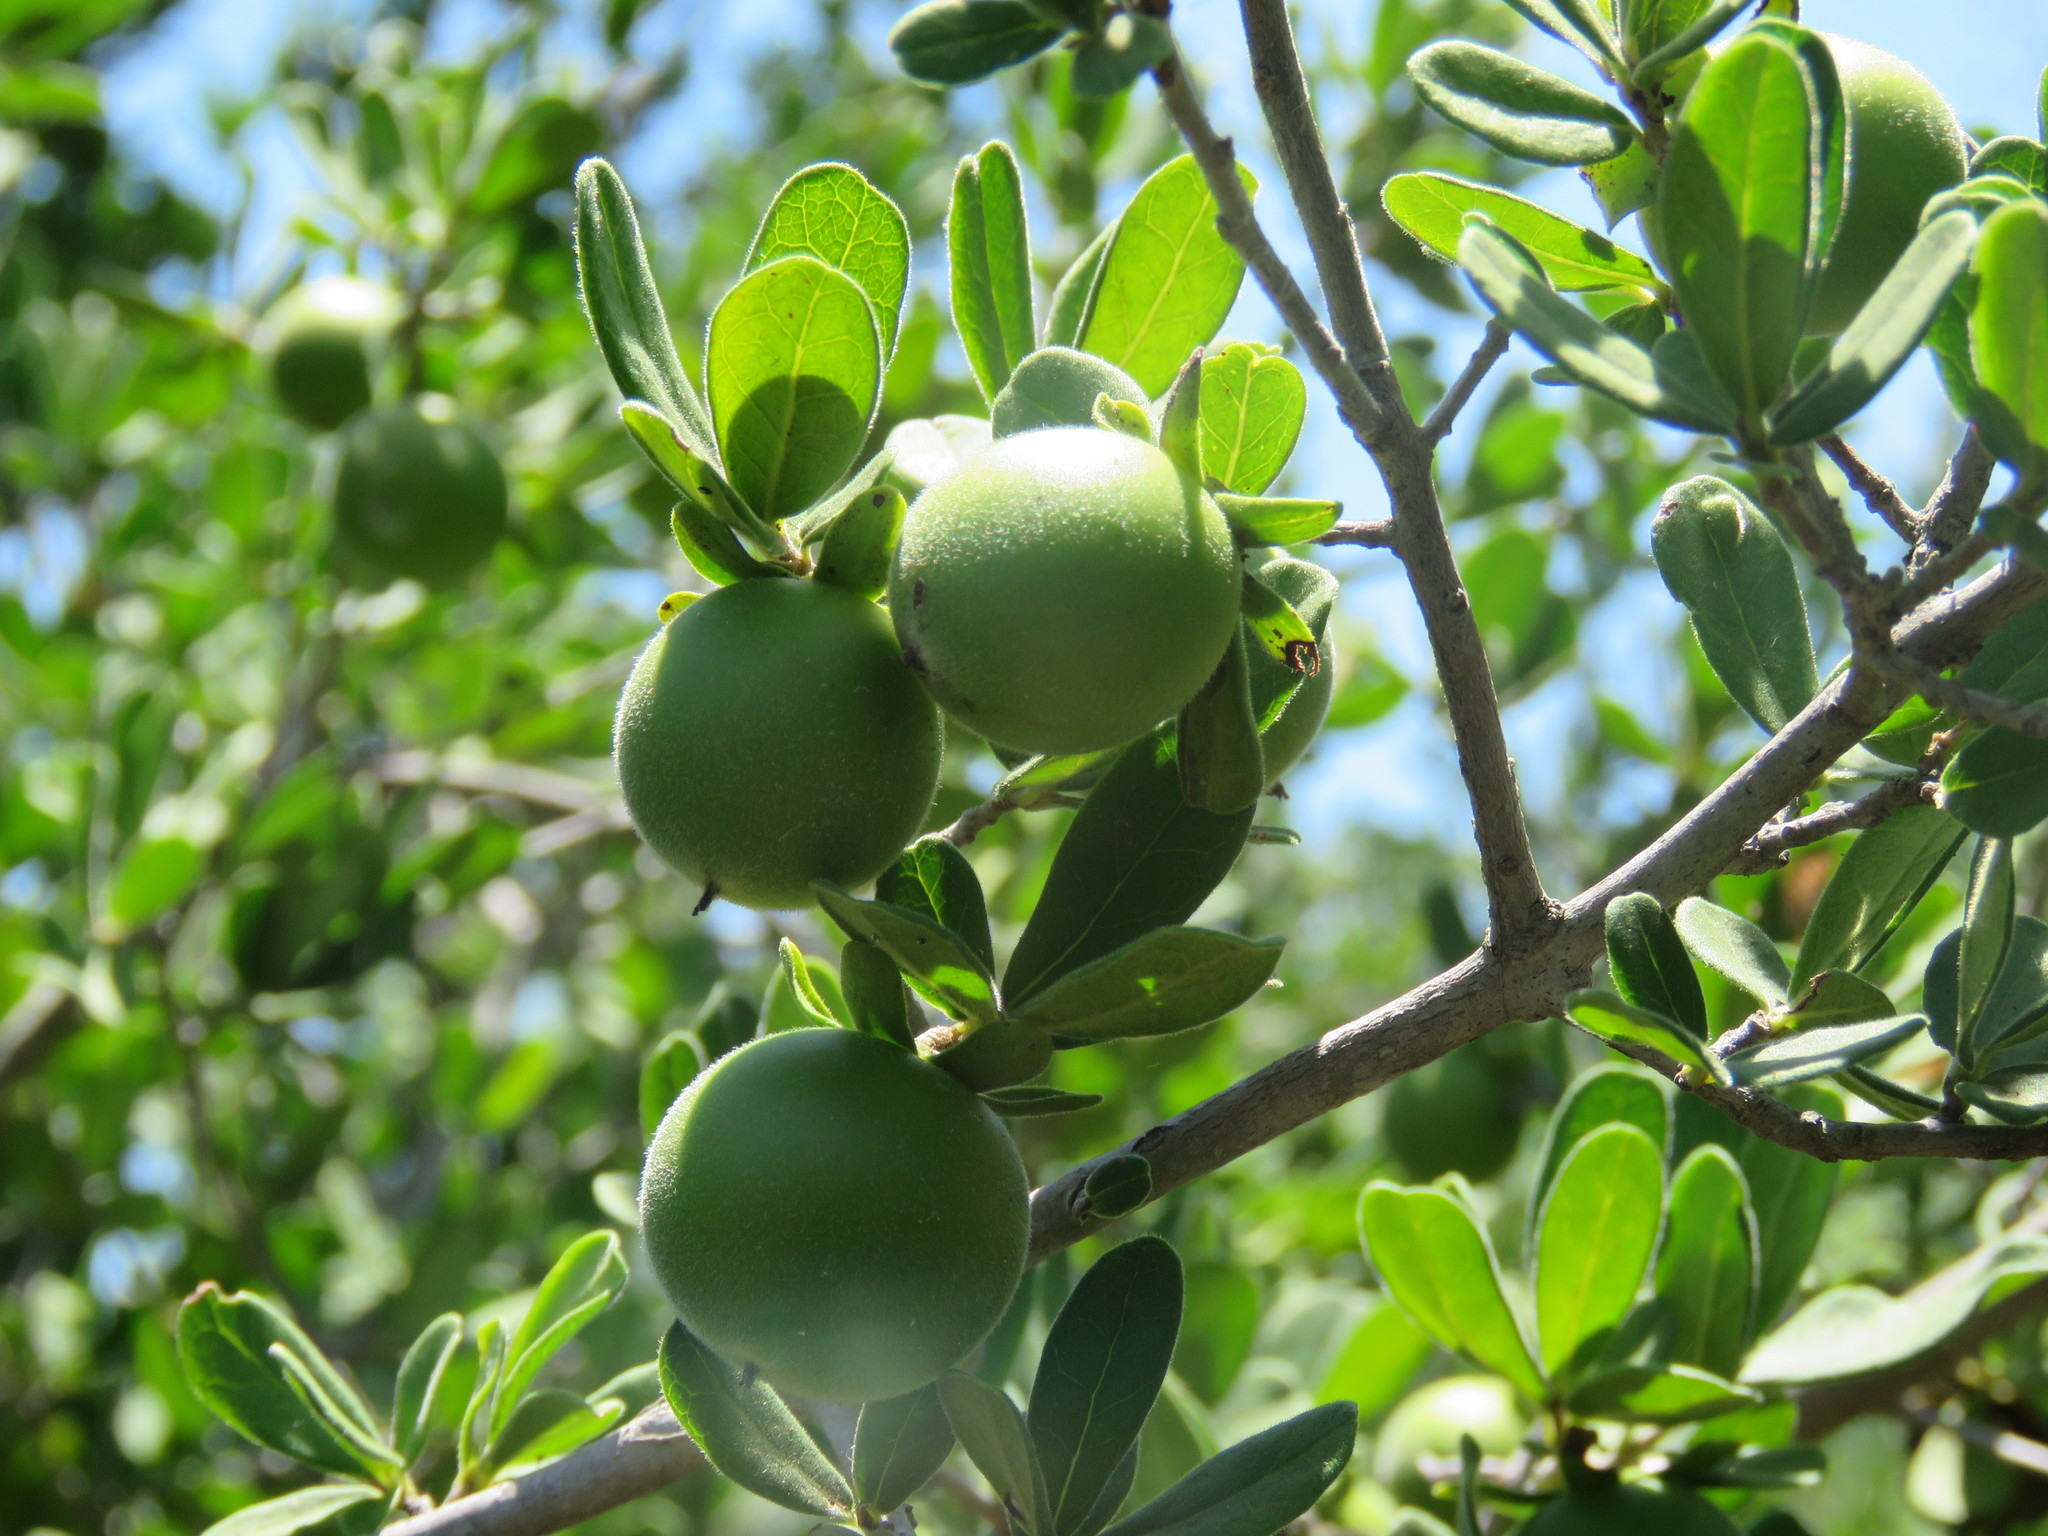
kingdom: Plantae
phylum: Tracheophyta
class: Magnoliopsida
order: Ericales
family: Ebenaceae
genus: Diospyros
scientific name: Diospyros texana
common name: Texas persimmon
